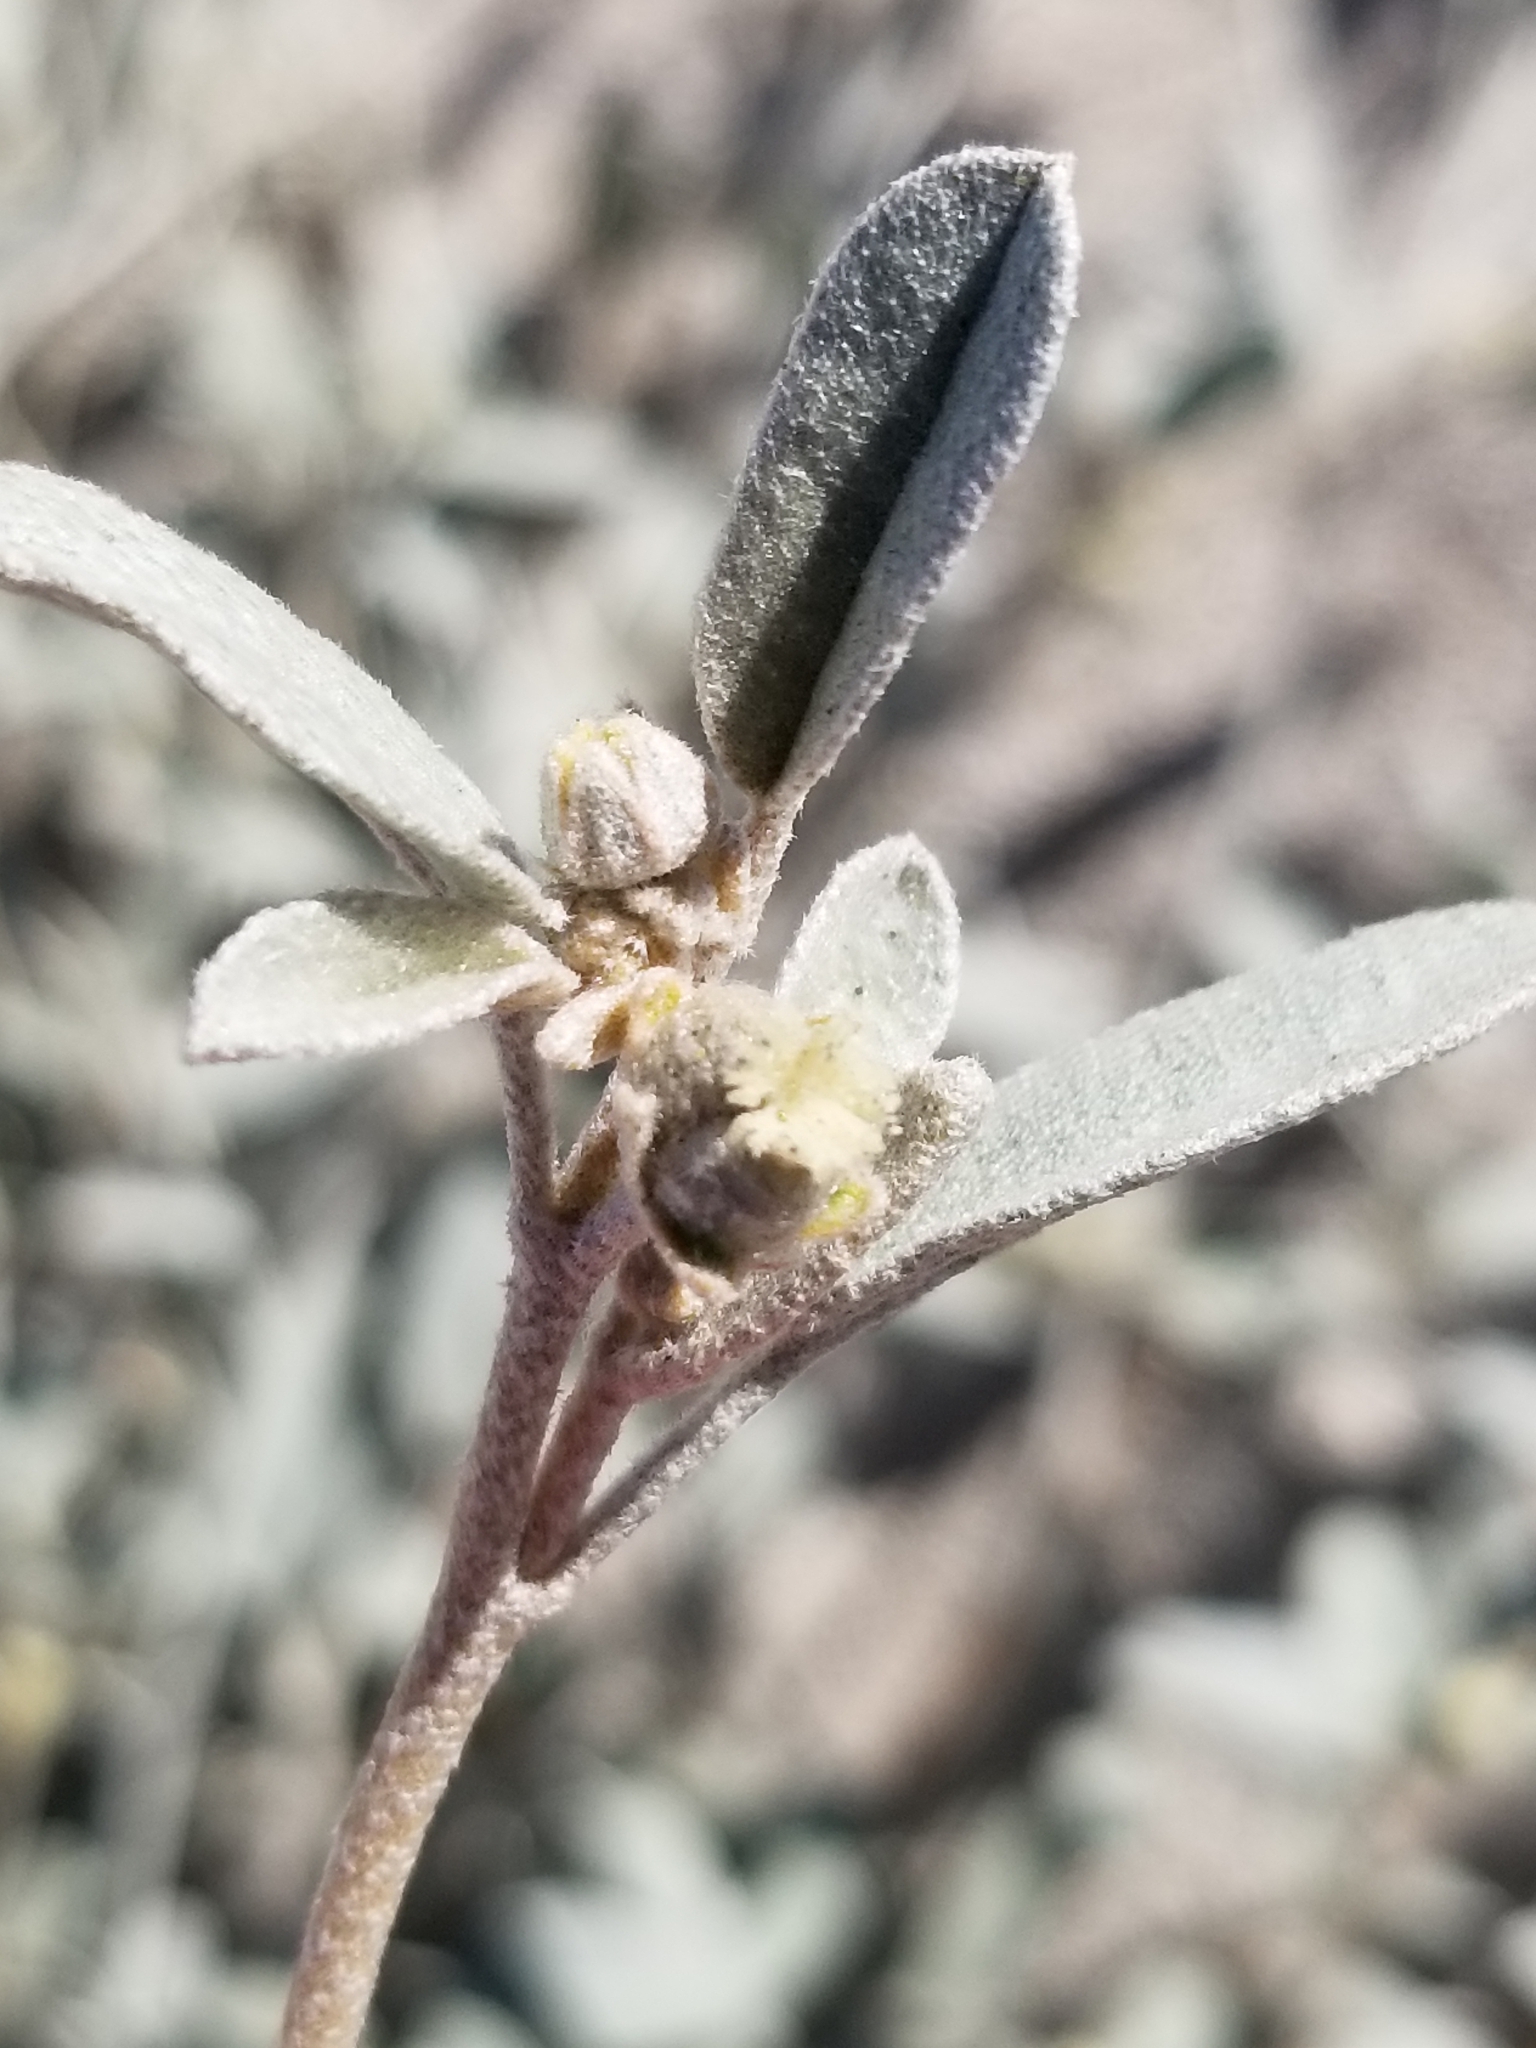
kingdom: Plantae
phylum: Tracheophyta
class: Magnoliopsida
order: Malpighiales
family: Euphorbiaceae
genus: Croton
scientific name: Croton californicus
